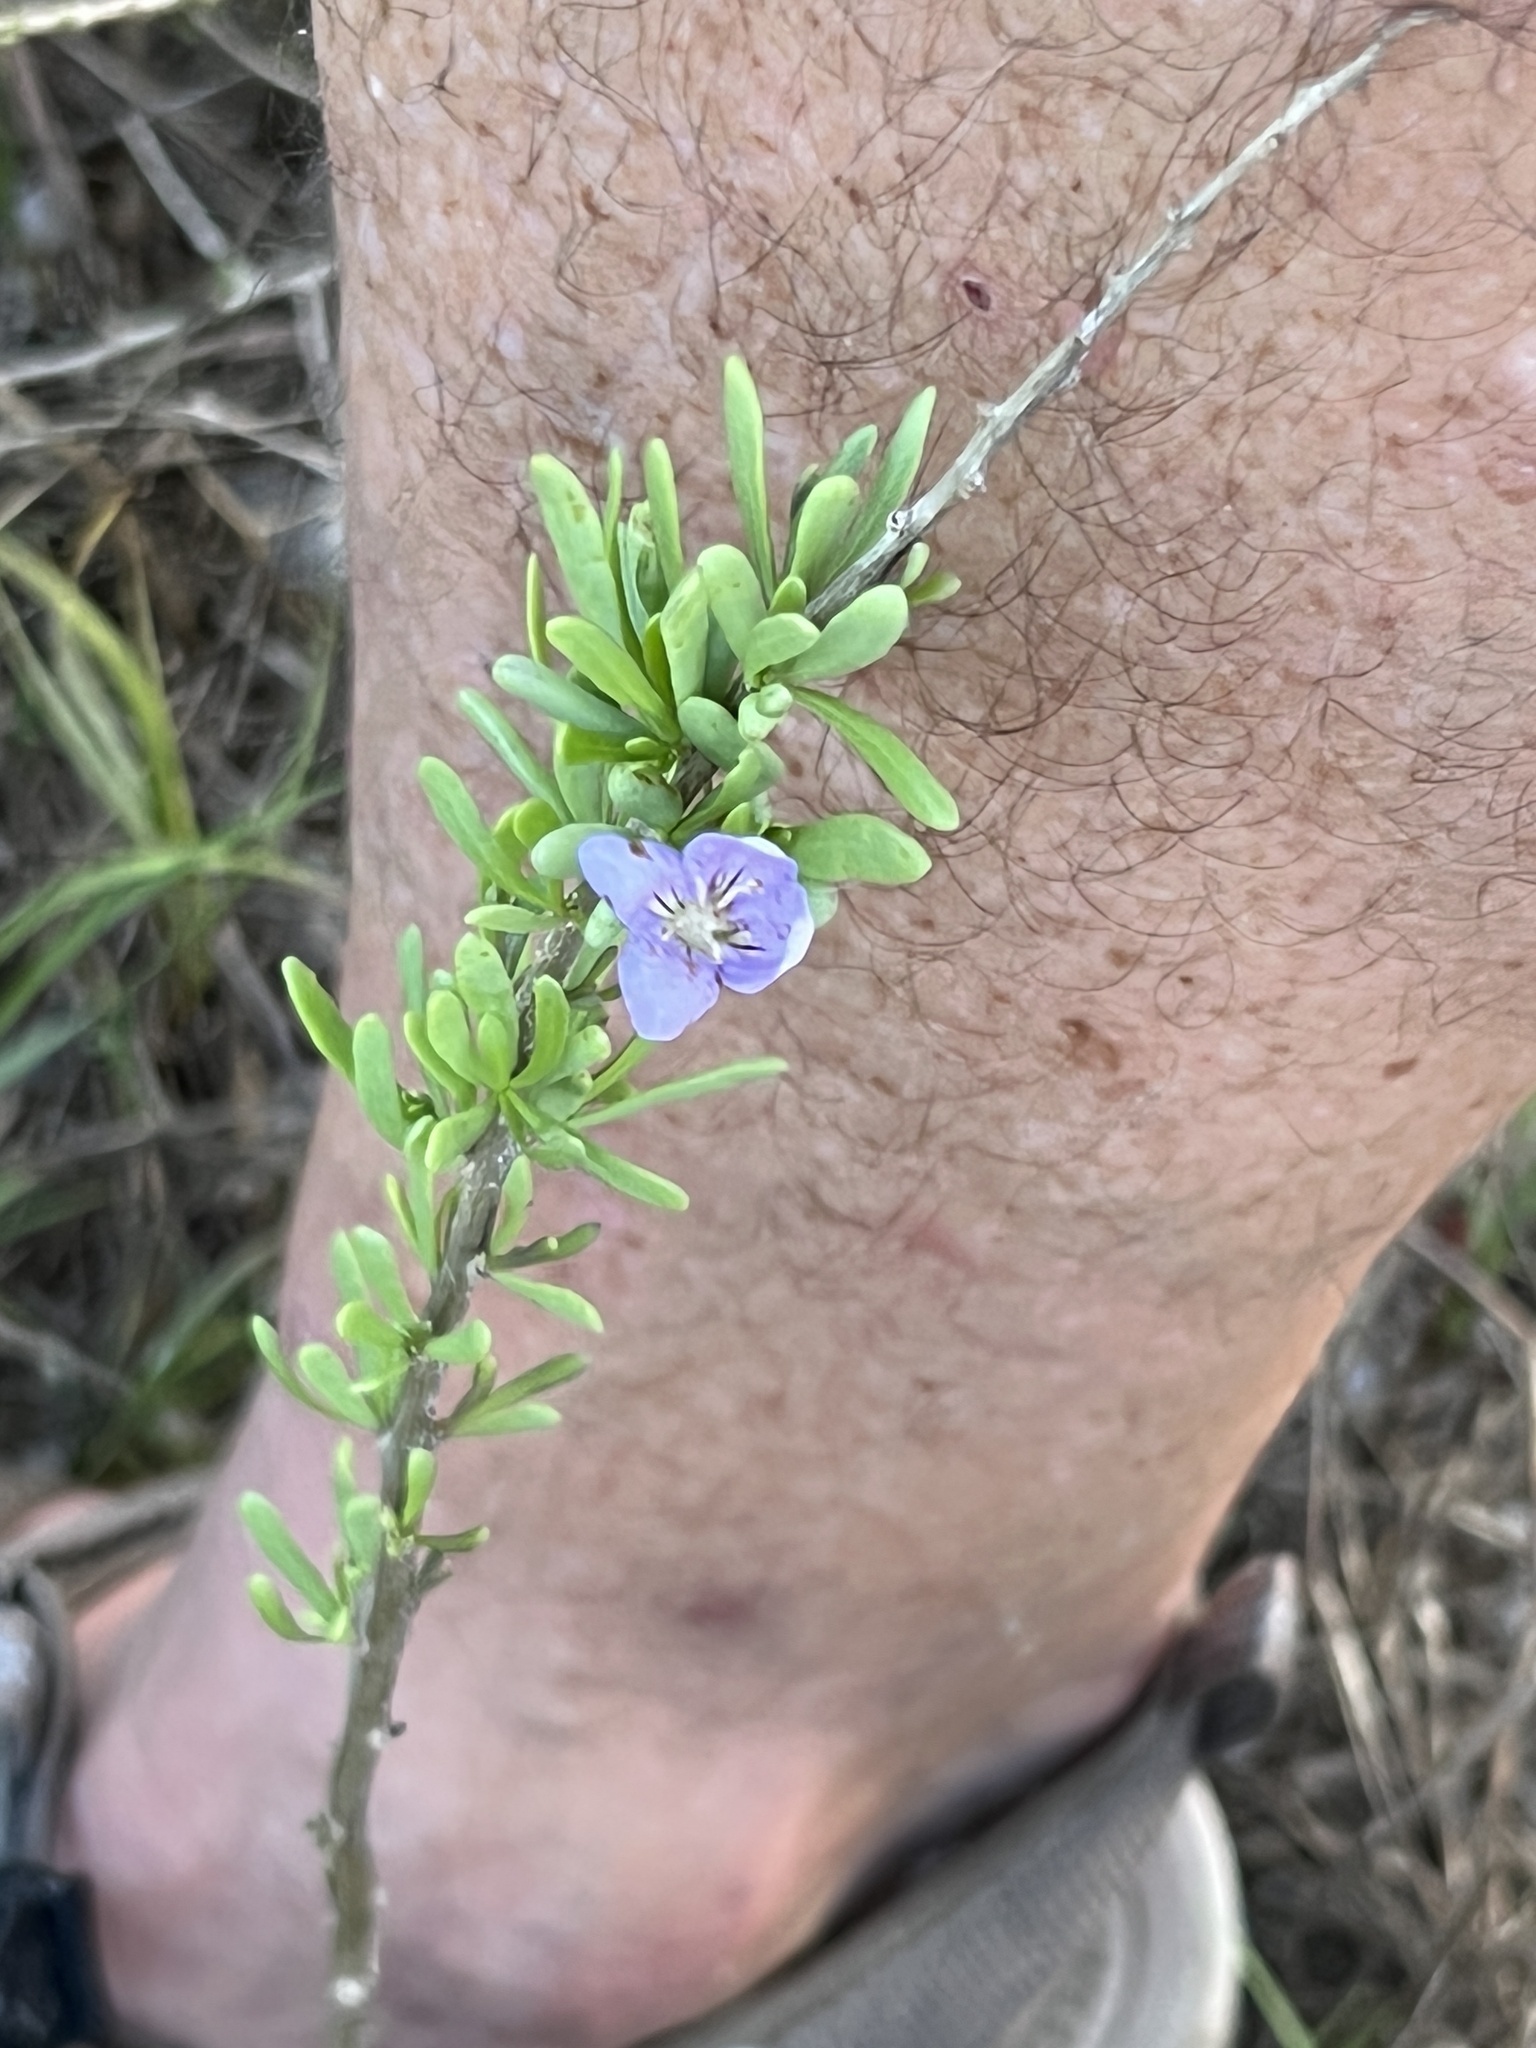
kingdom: Plantae
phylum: Tracheophyta
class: Magnoliopsida
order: Solanales
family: Solanaceae
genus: Lycium
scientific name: Lycium carolinianum
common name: Christmasberry
